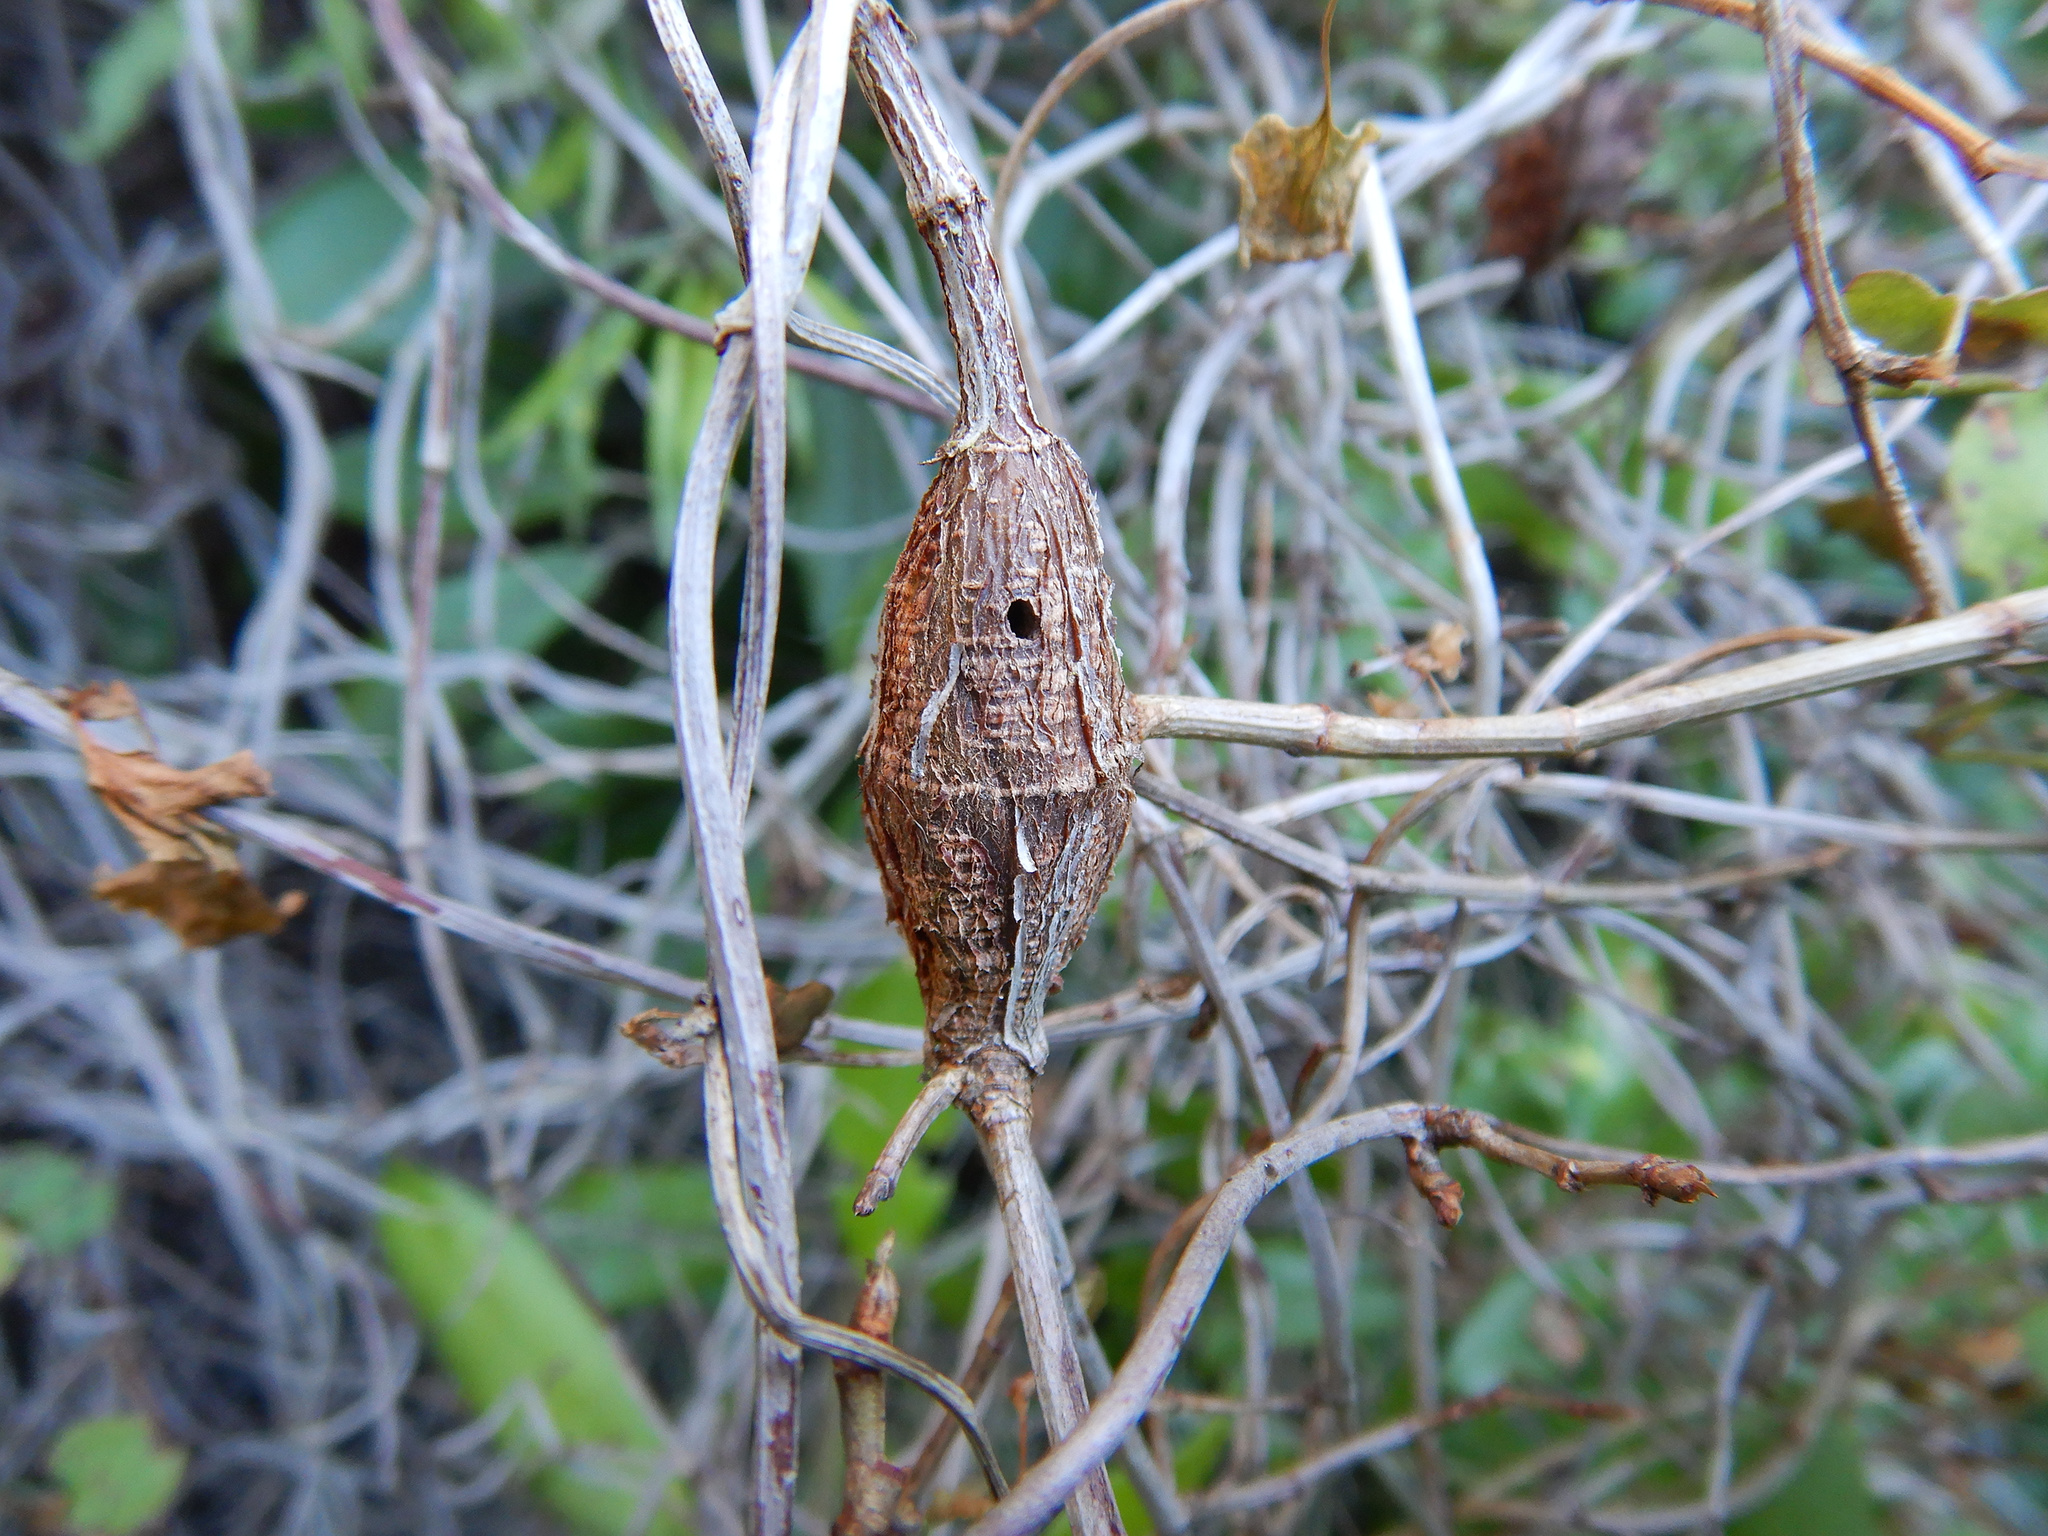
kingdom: Animalia
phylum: Arthropoda
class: Insecta
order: Lepidoptera
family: Thyrididae
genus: Morova
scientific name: Morova subfasciata
